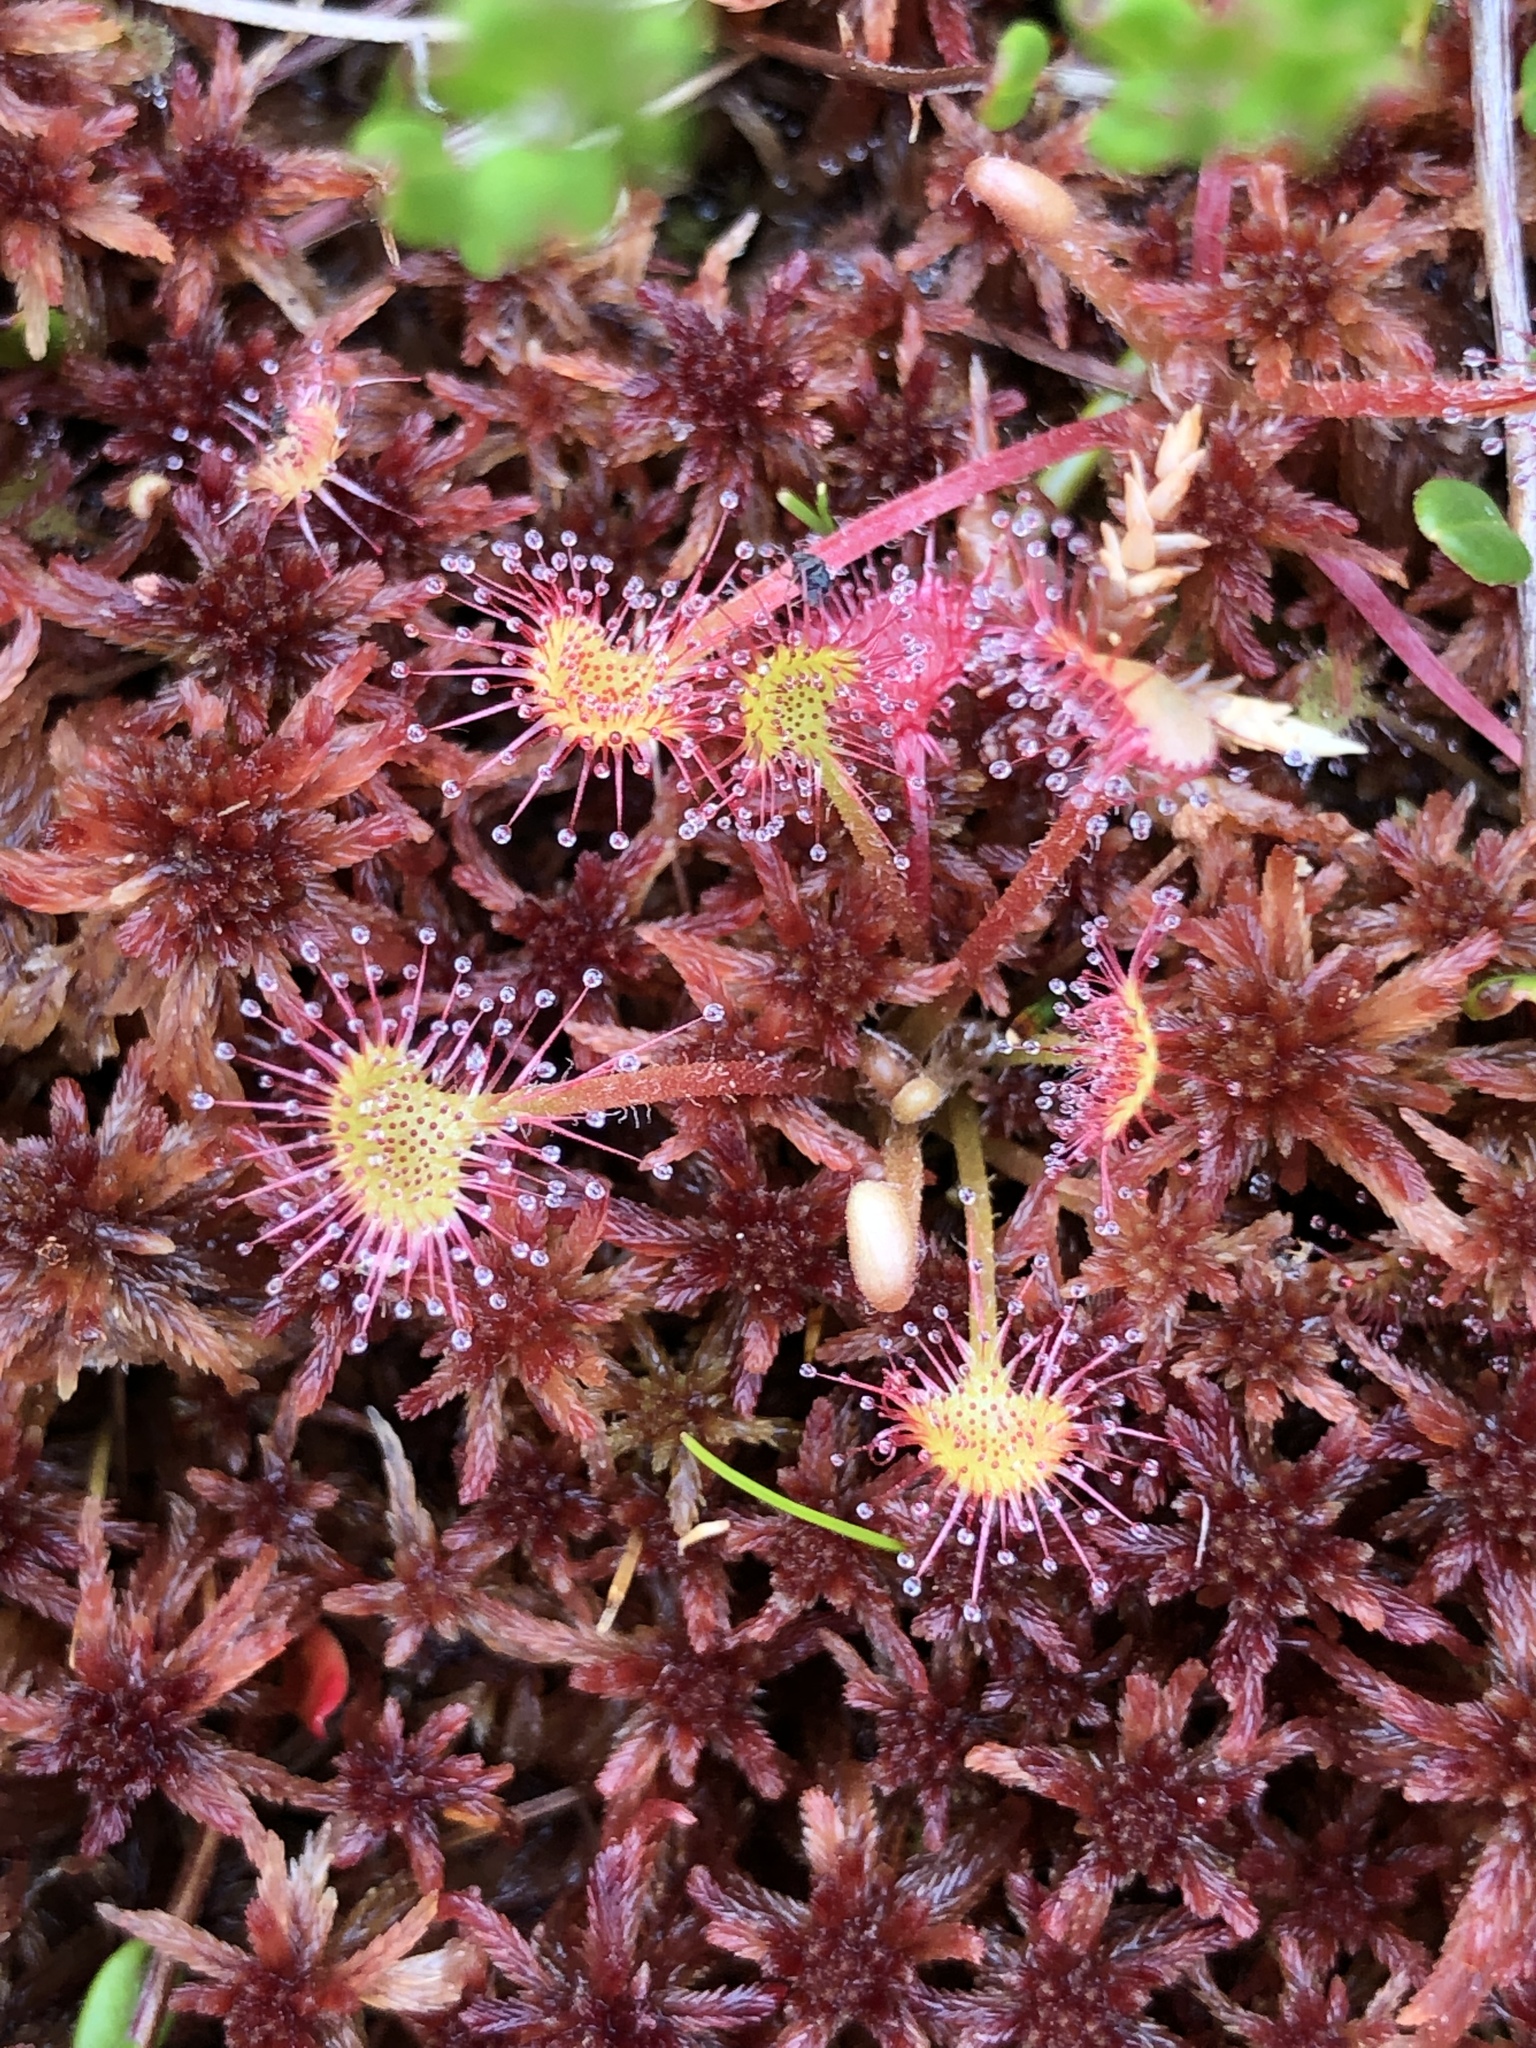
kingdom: Plantae
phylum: Tracheophyta
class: Magnoliopsida
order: Caryophyllales
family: Droseraceae
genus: Drosera
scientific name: Drosera rotundifolia
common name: Round-leaved sundew
